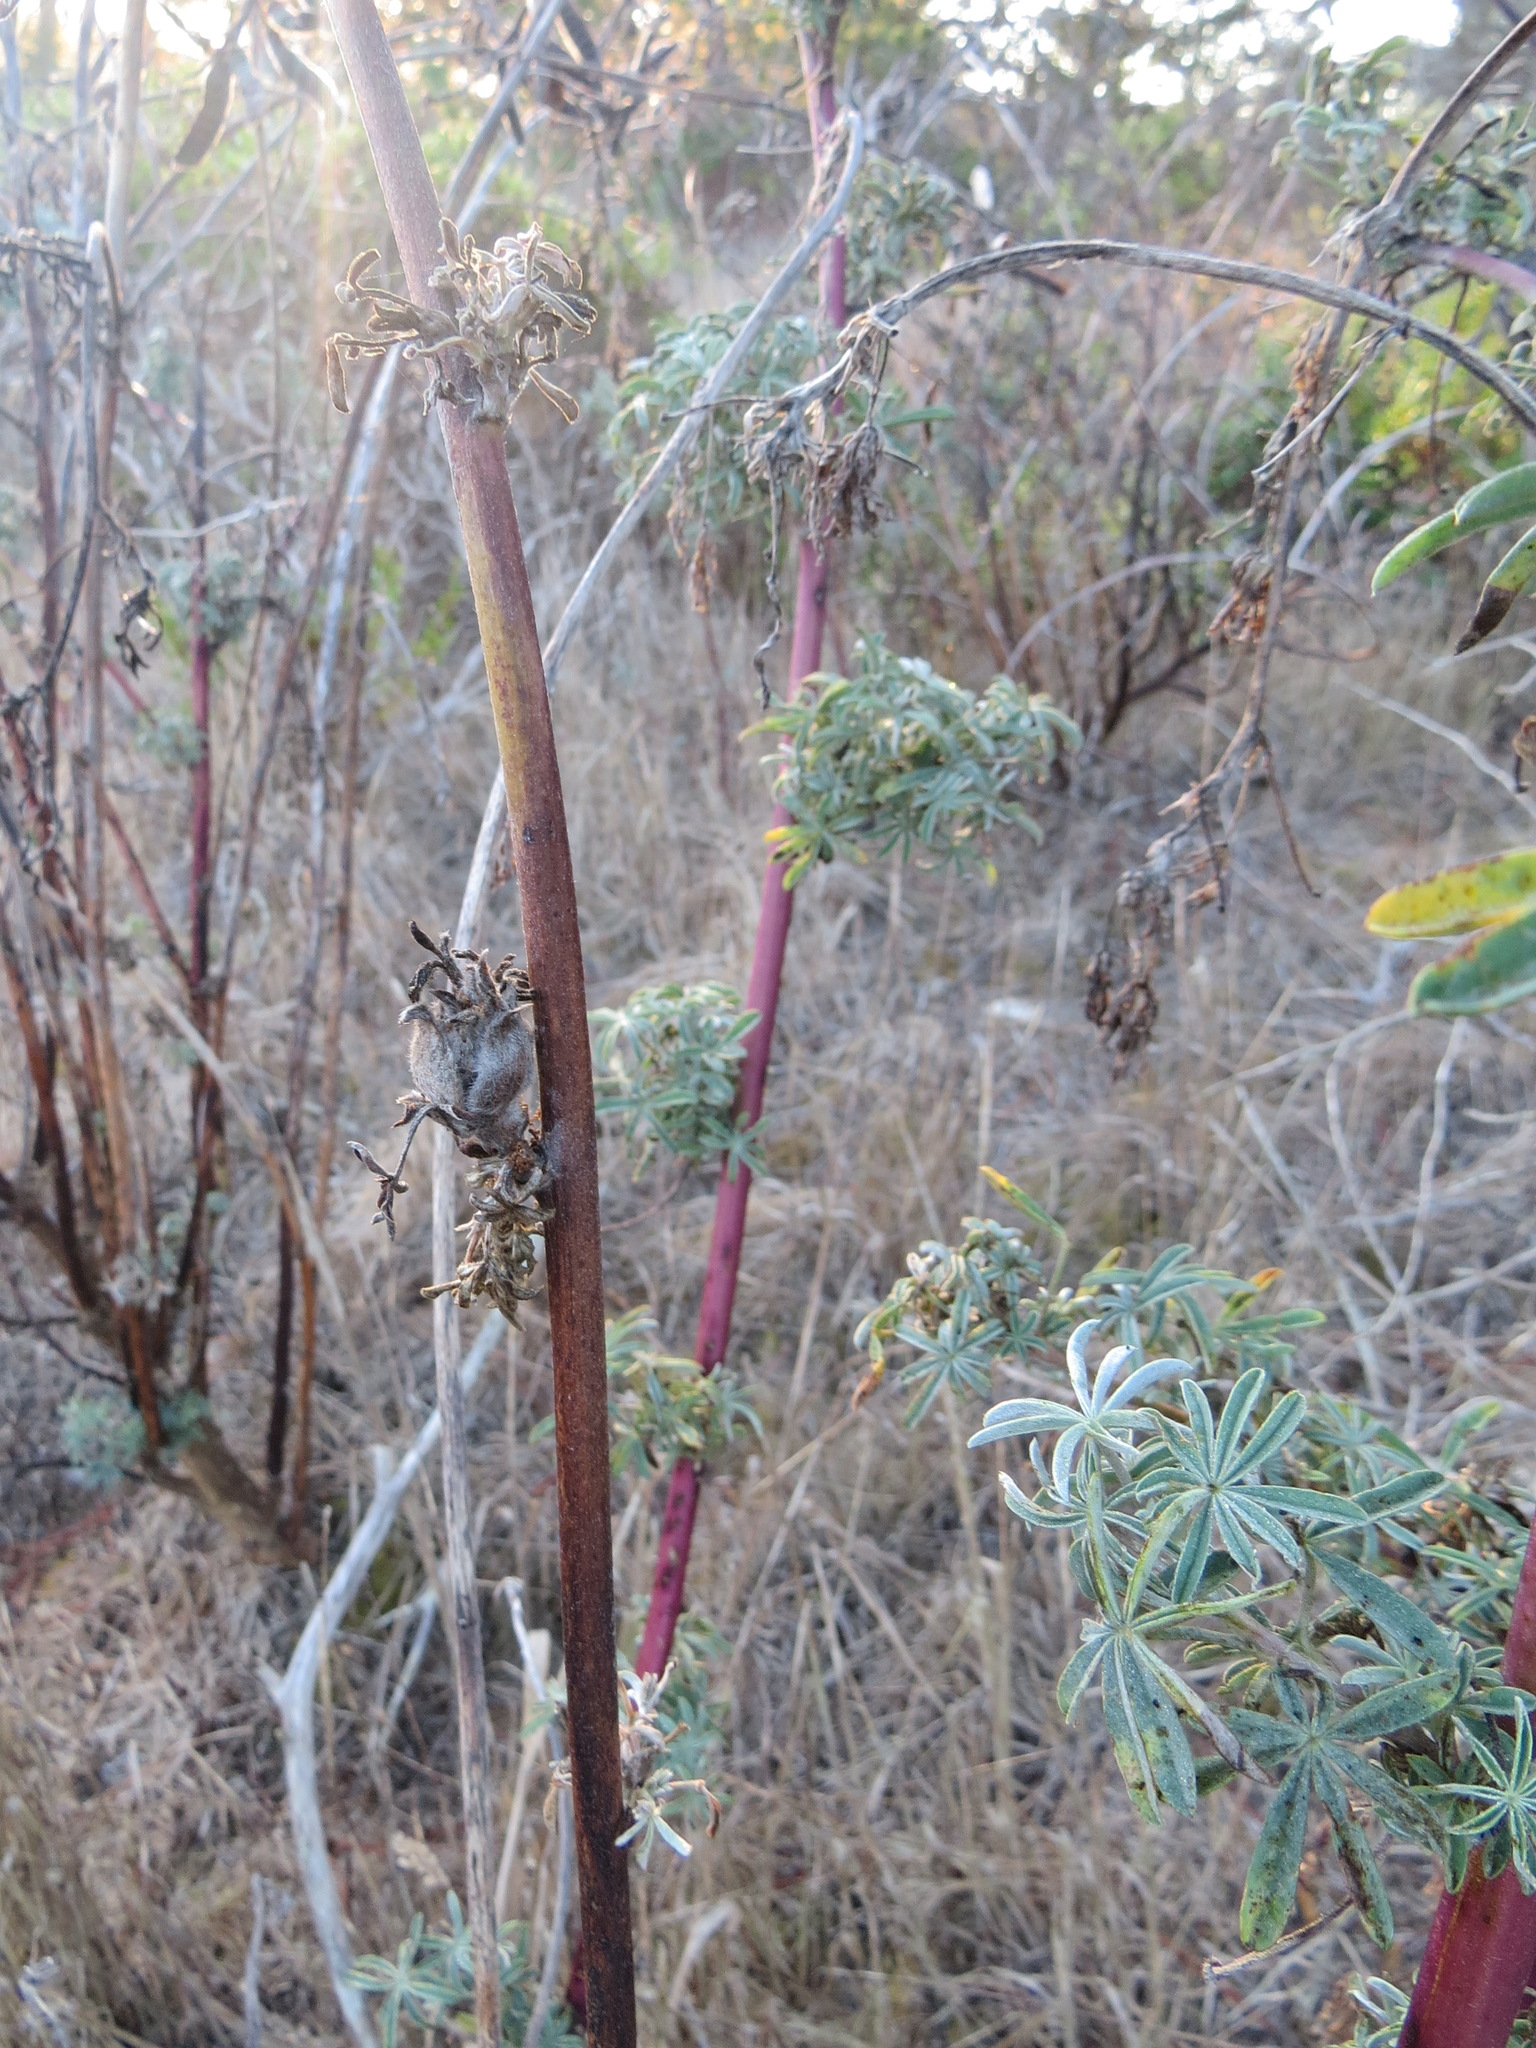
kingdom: Animalia
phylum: Arthropoda
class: Insecta
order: Diptera
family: Cecidomyiidae
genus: Dasineura
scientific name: Dasineura lupini
